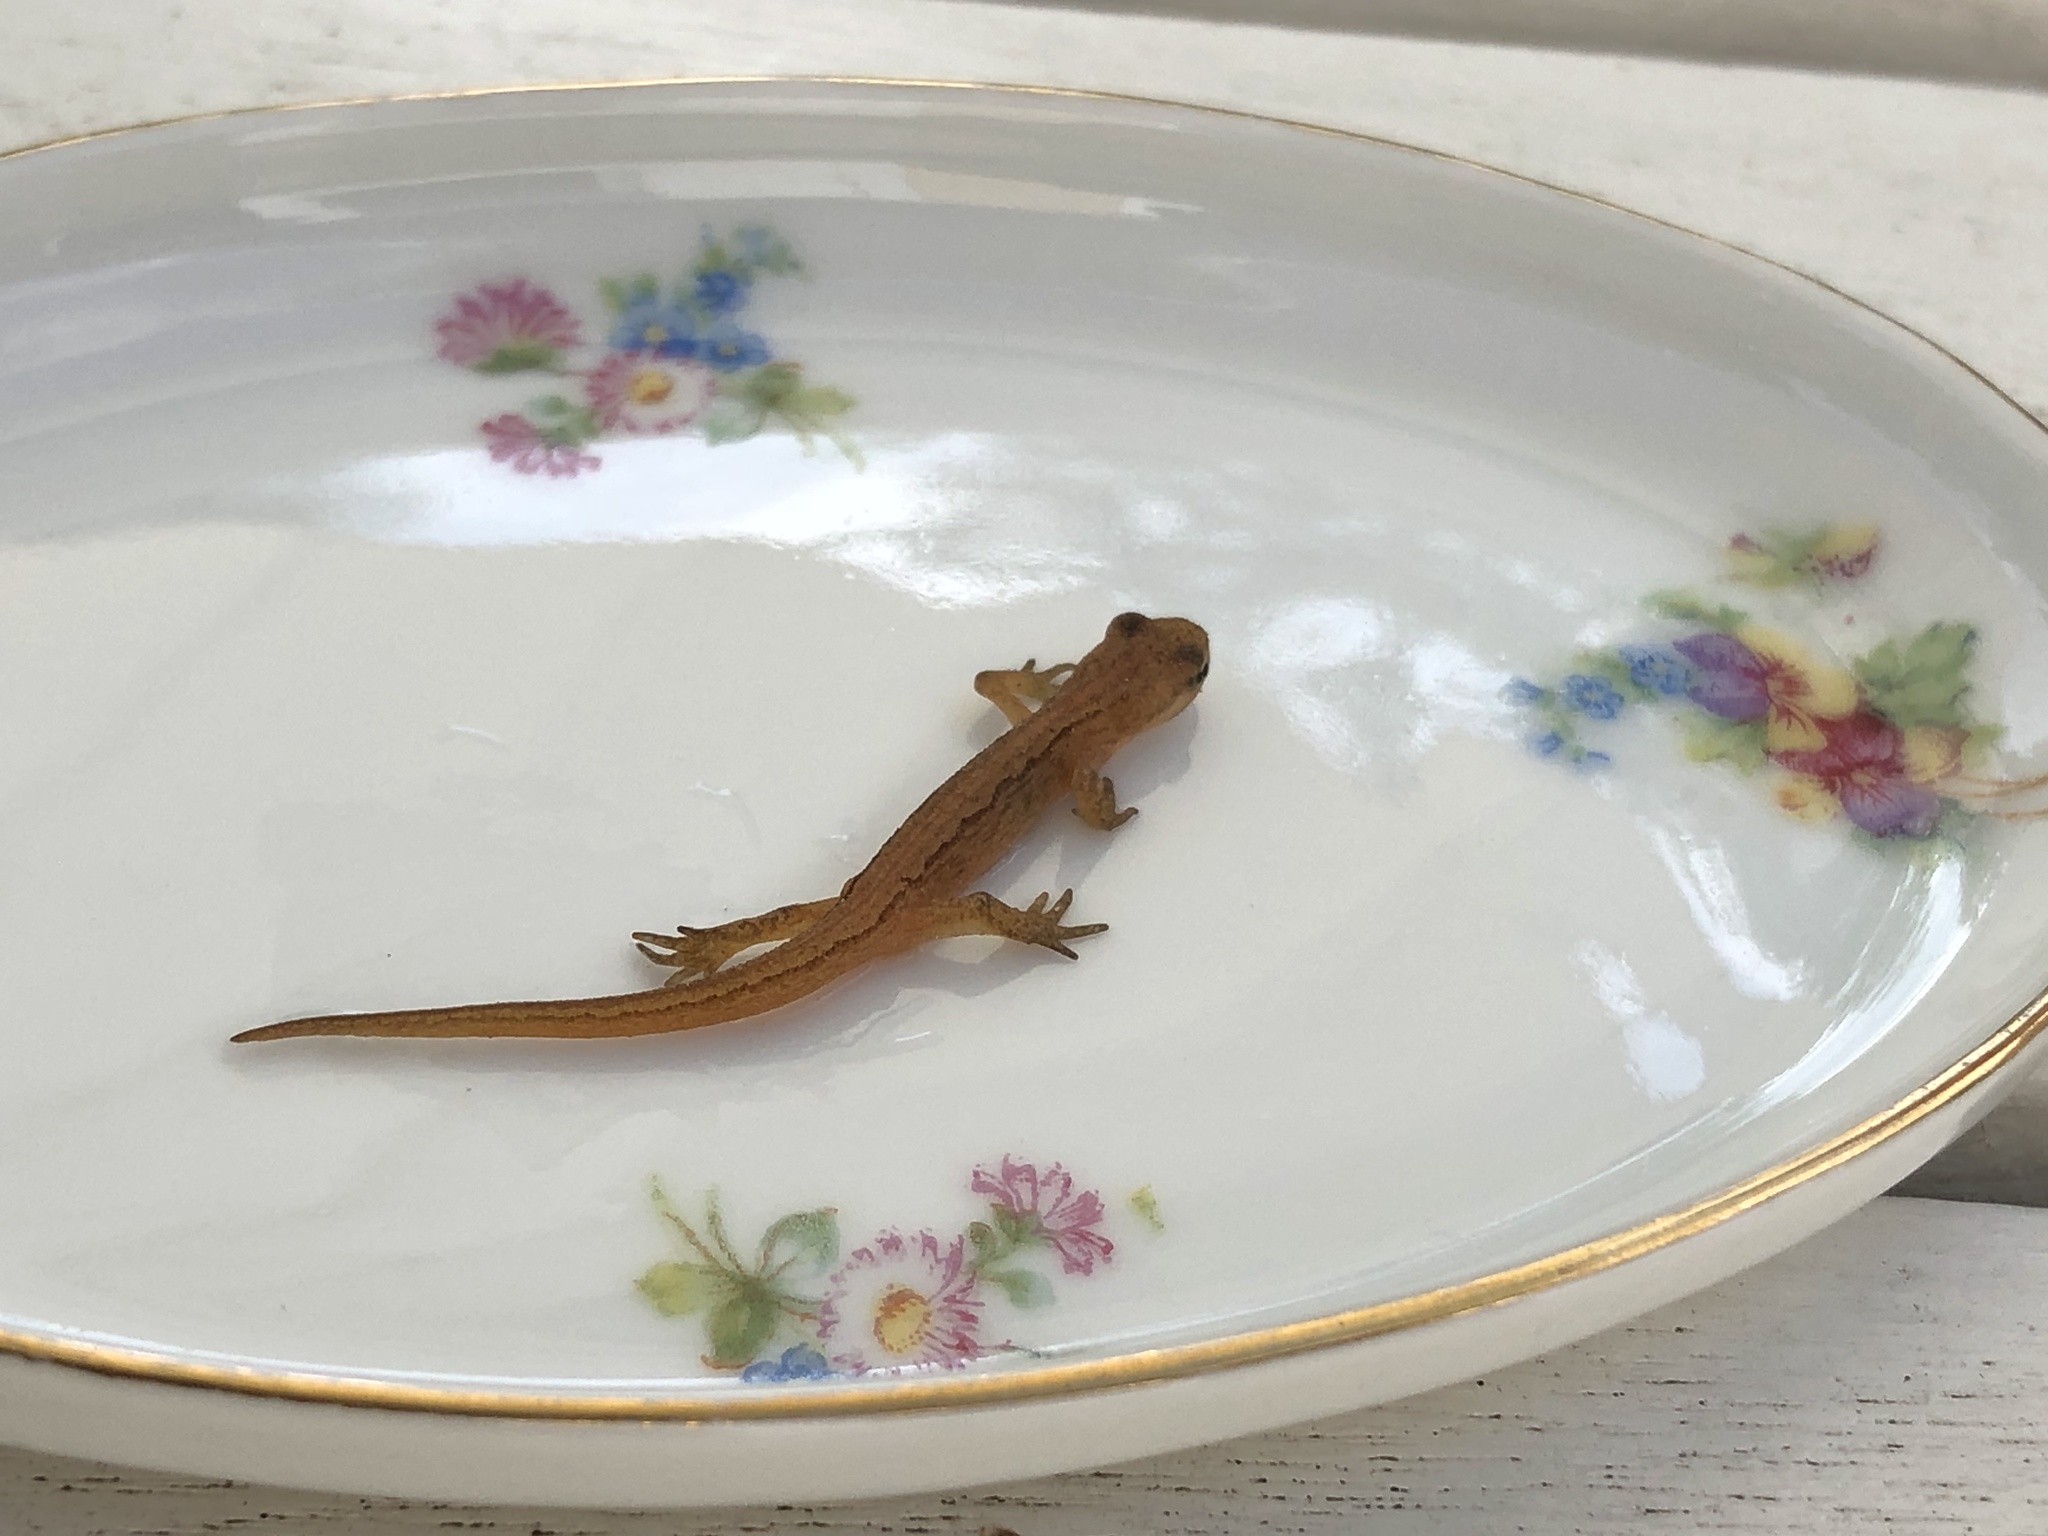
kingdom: Animalia
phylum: Chordata
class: Amphibia
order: Caudata
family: Salamandridae
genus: Lissotriton
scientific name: Lissotriton vulgaris
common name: Smooth newt
